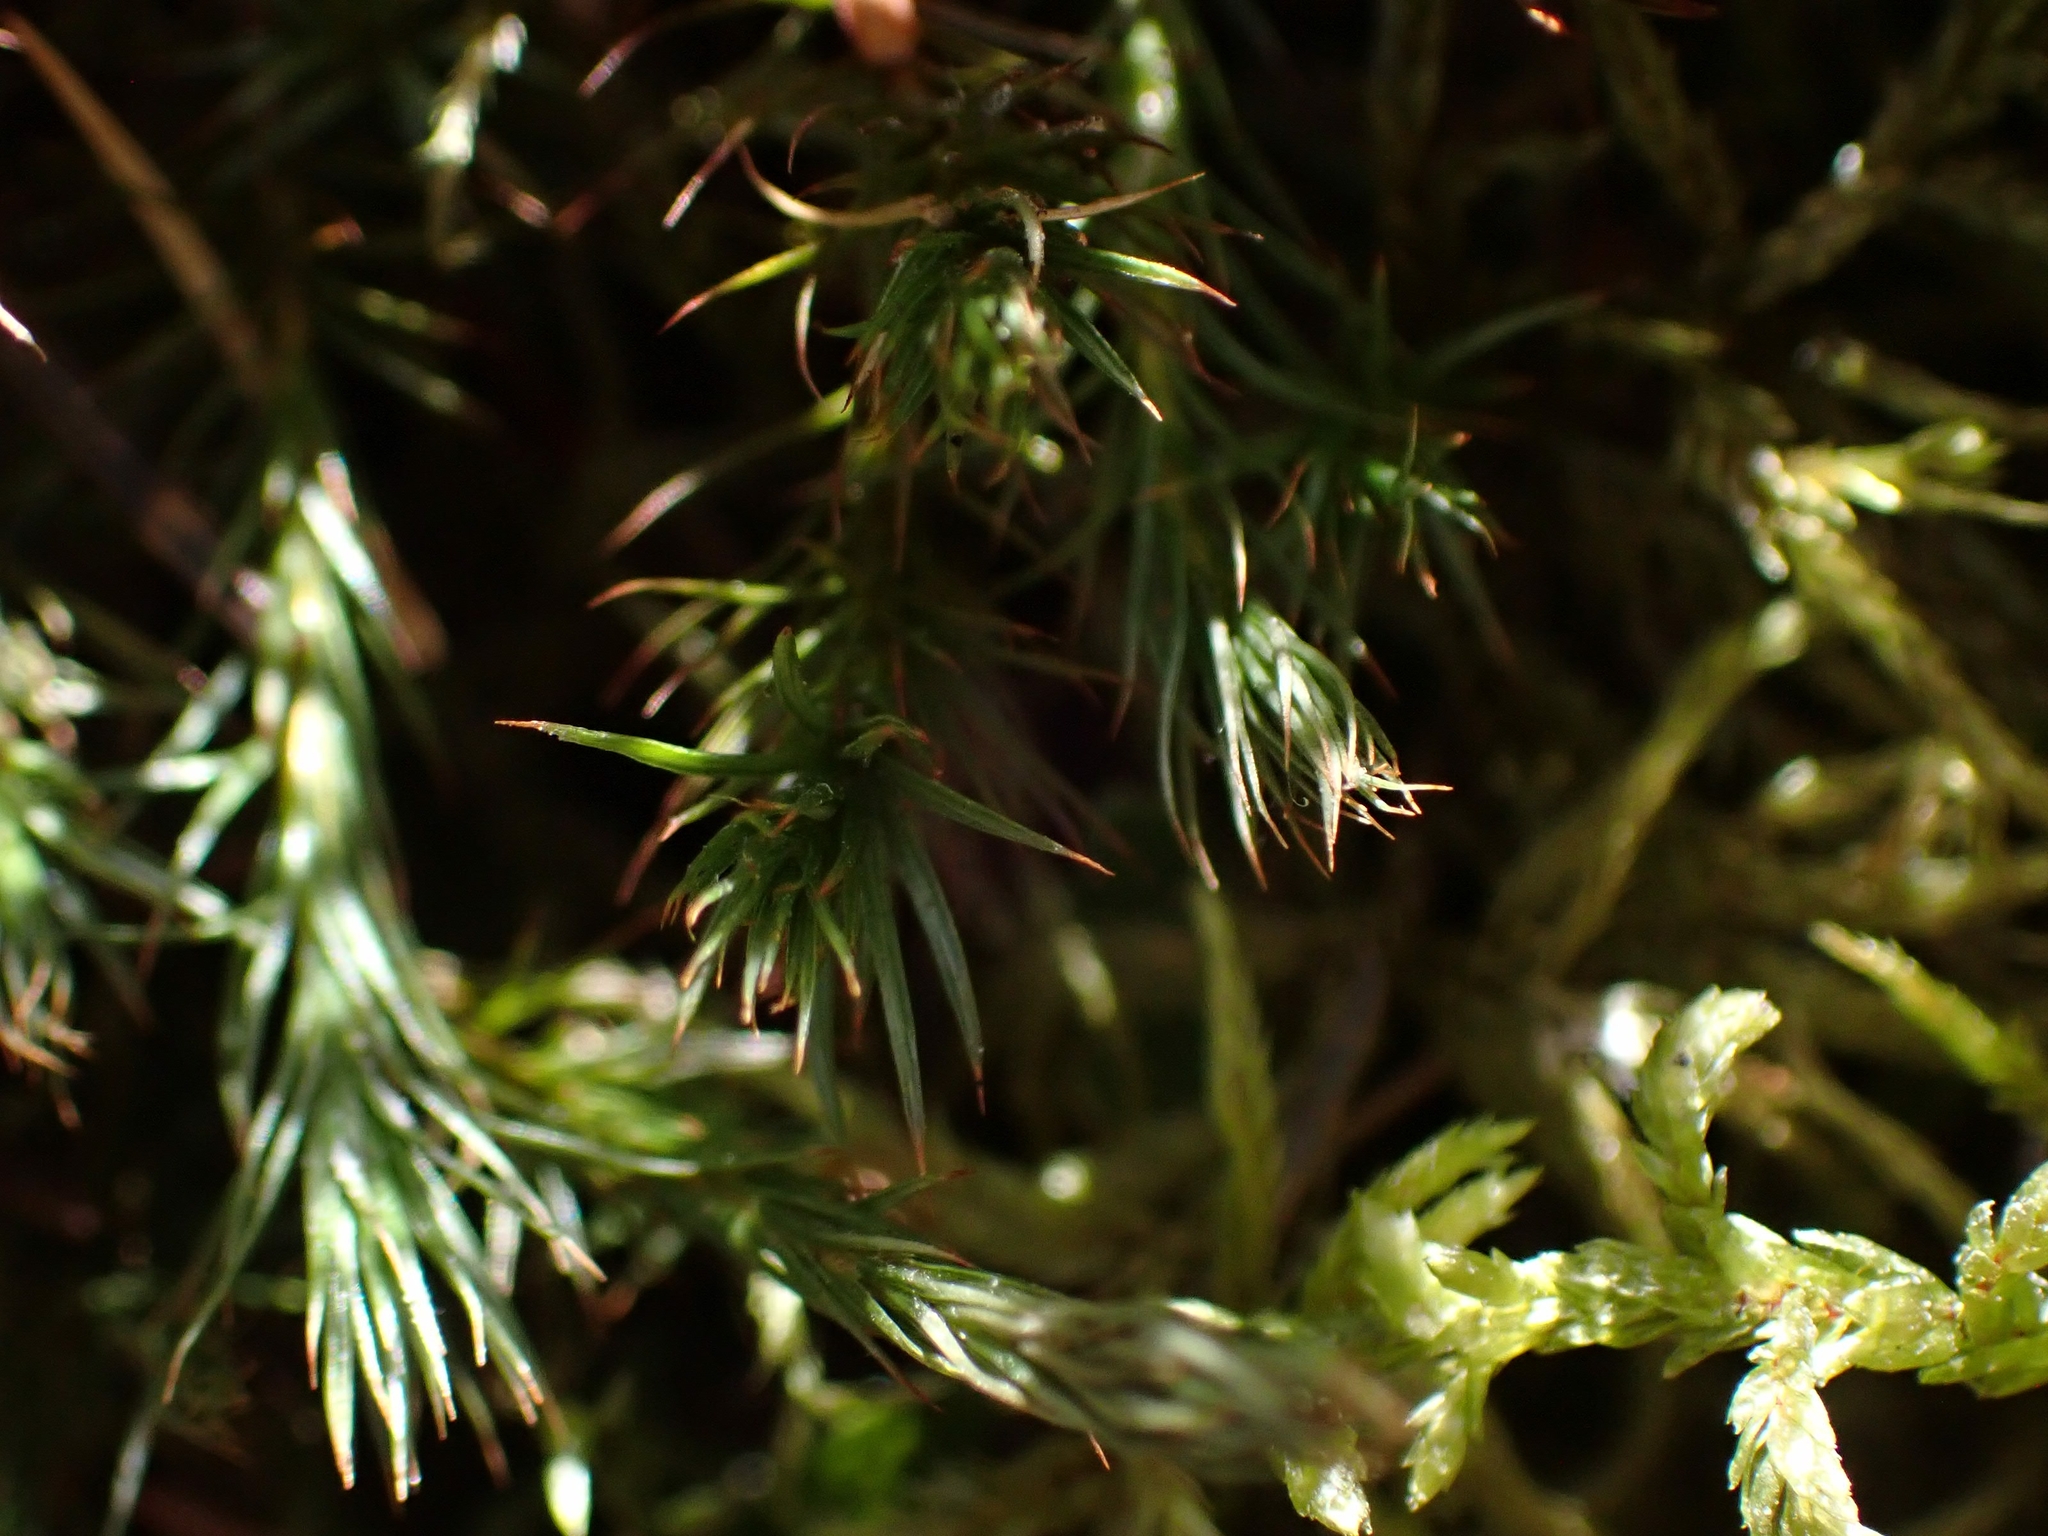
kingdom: Plantae
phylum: Bryophyta
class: Polytrichopsida
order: Polytrichales
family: Polytrichaceae
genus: Polytrichum
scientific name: Polytrichum juniperinum
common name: Juniper haircap moss
